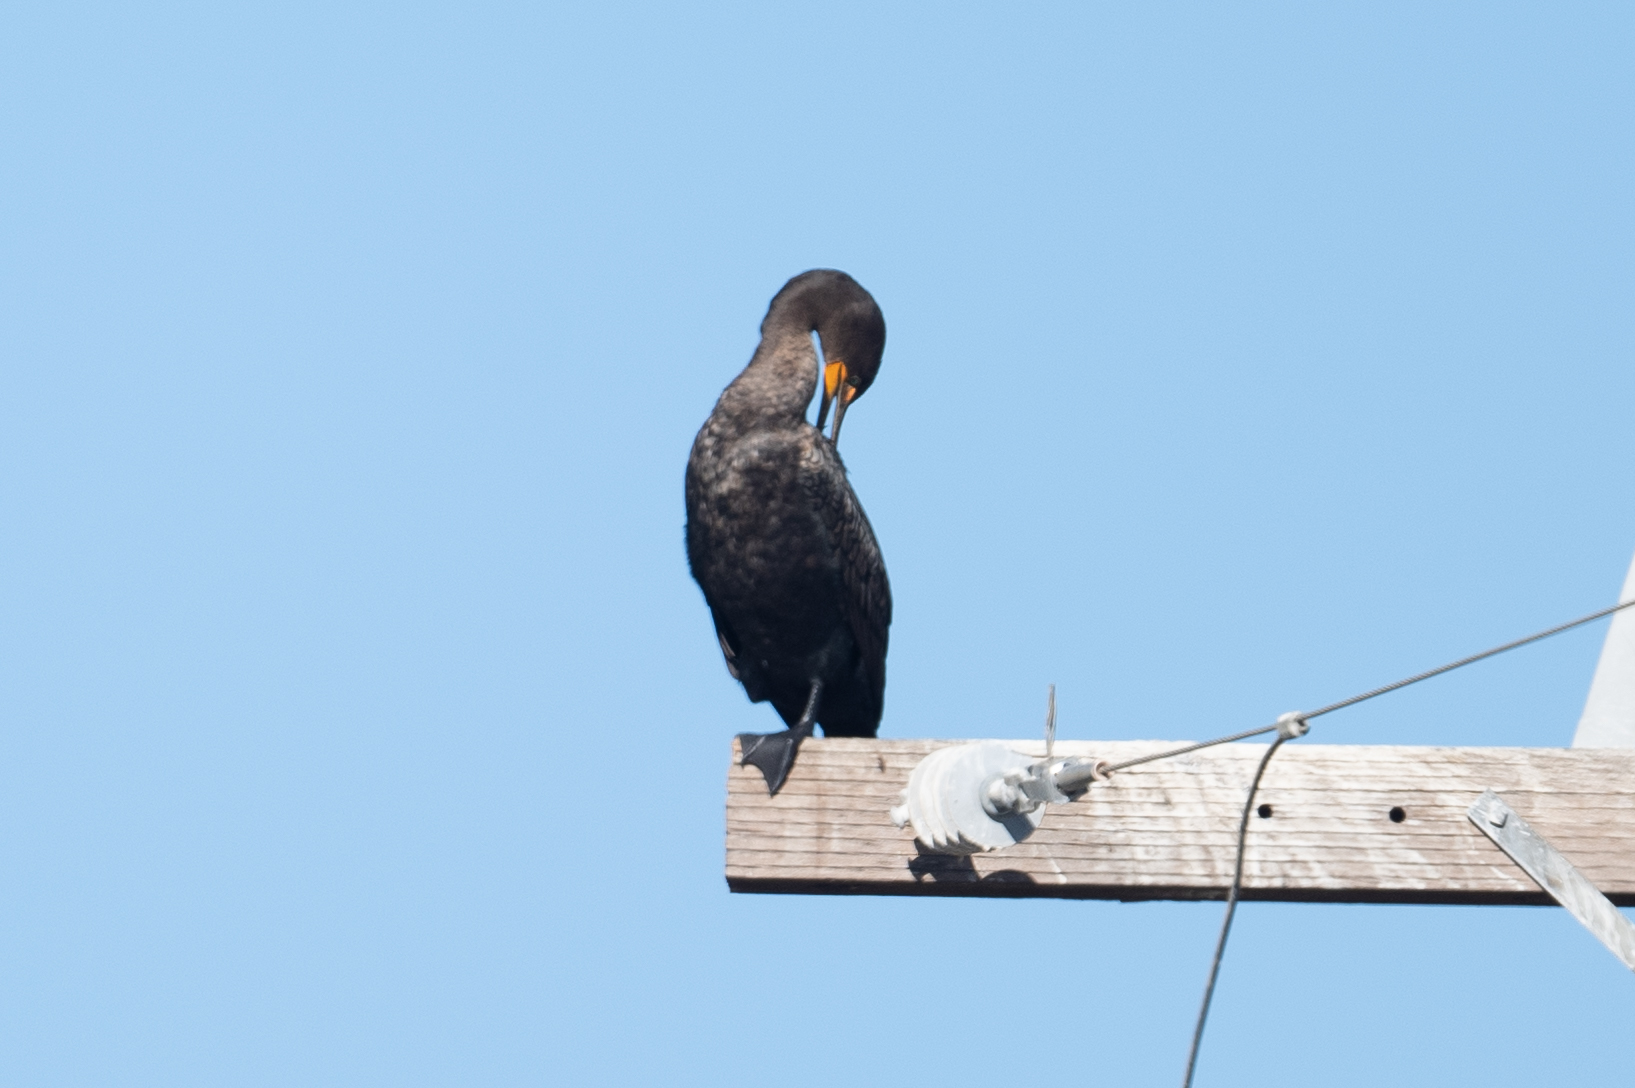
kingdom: Animalia
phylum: Chordata
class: Aves
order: Suliformes
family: Phalacrocoracidae
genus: Phalacrocorax
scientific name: Phalacrocorax auritus
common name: Double-crested cormorant
